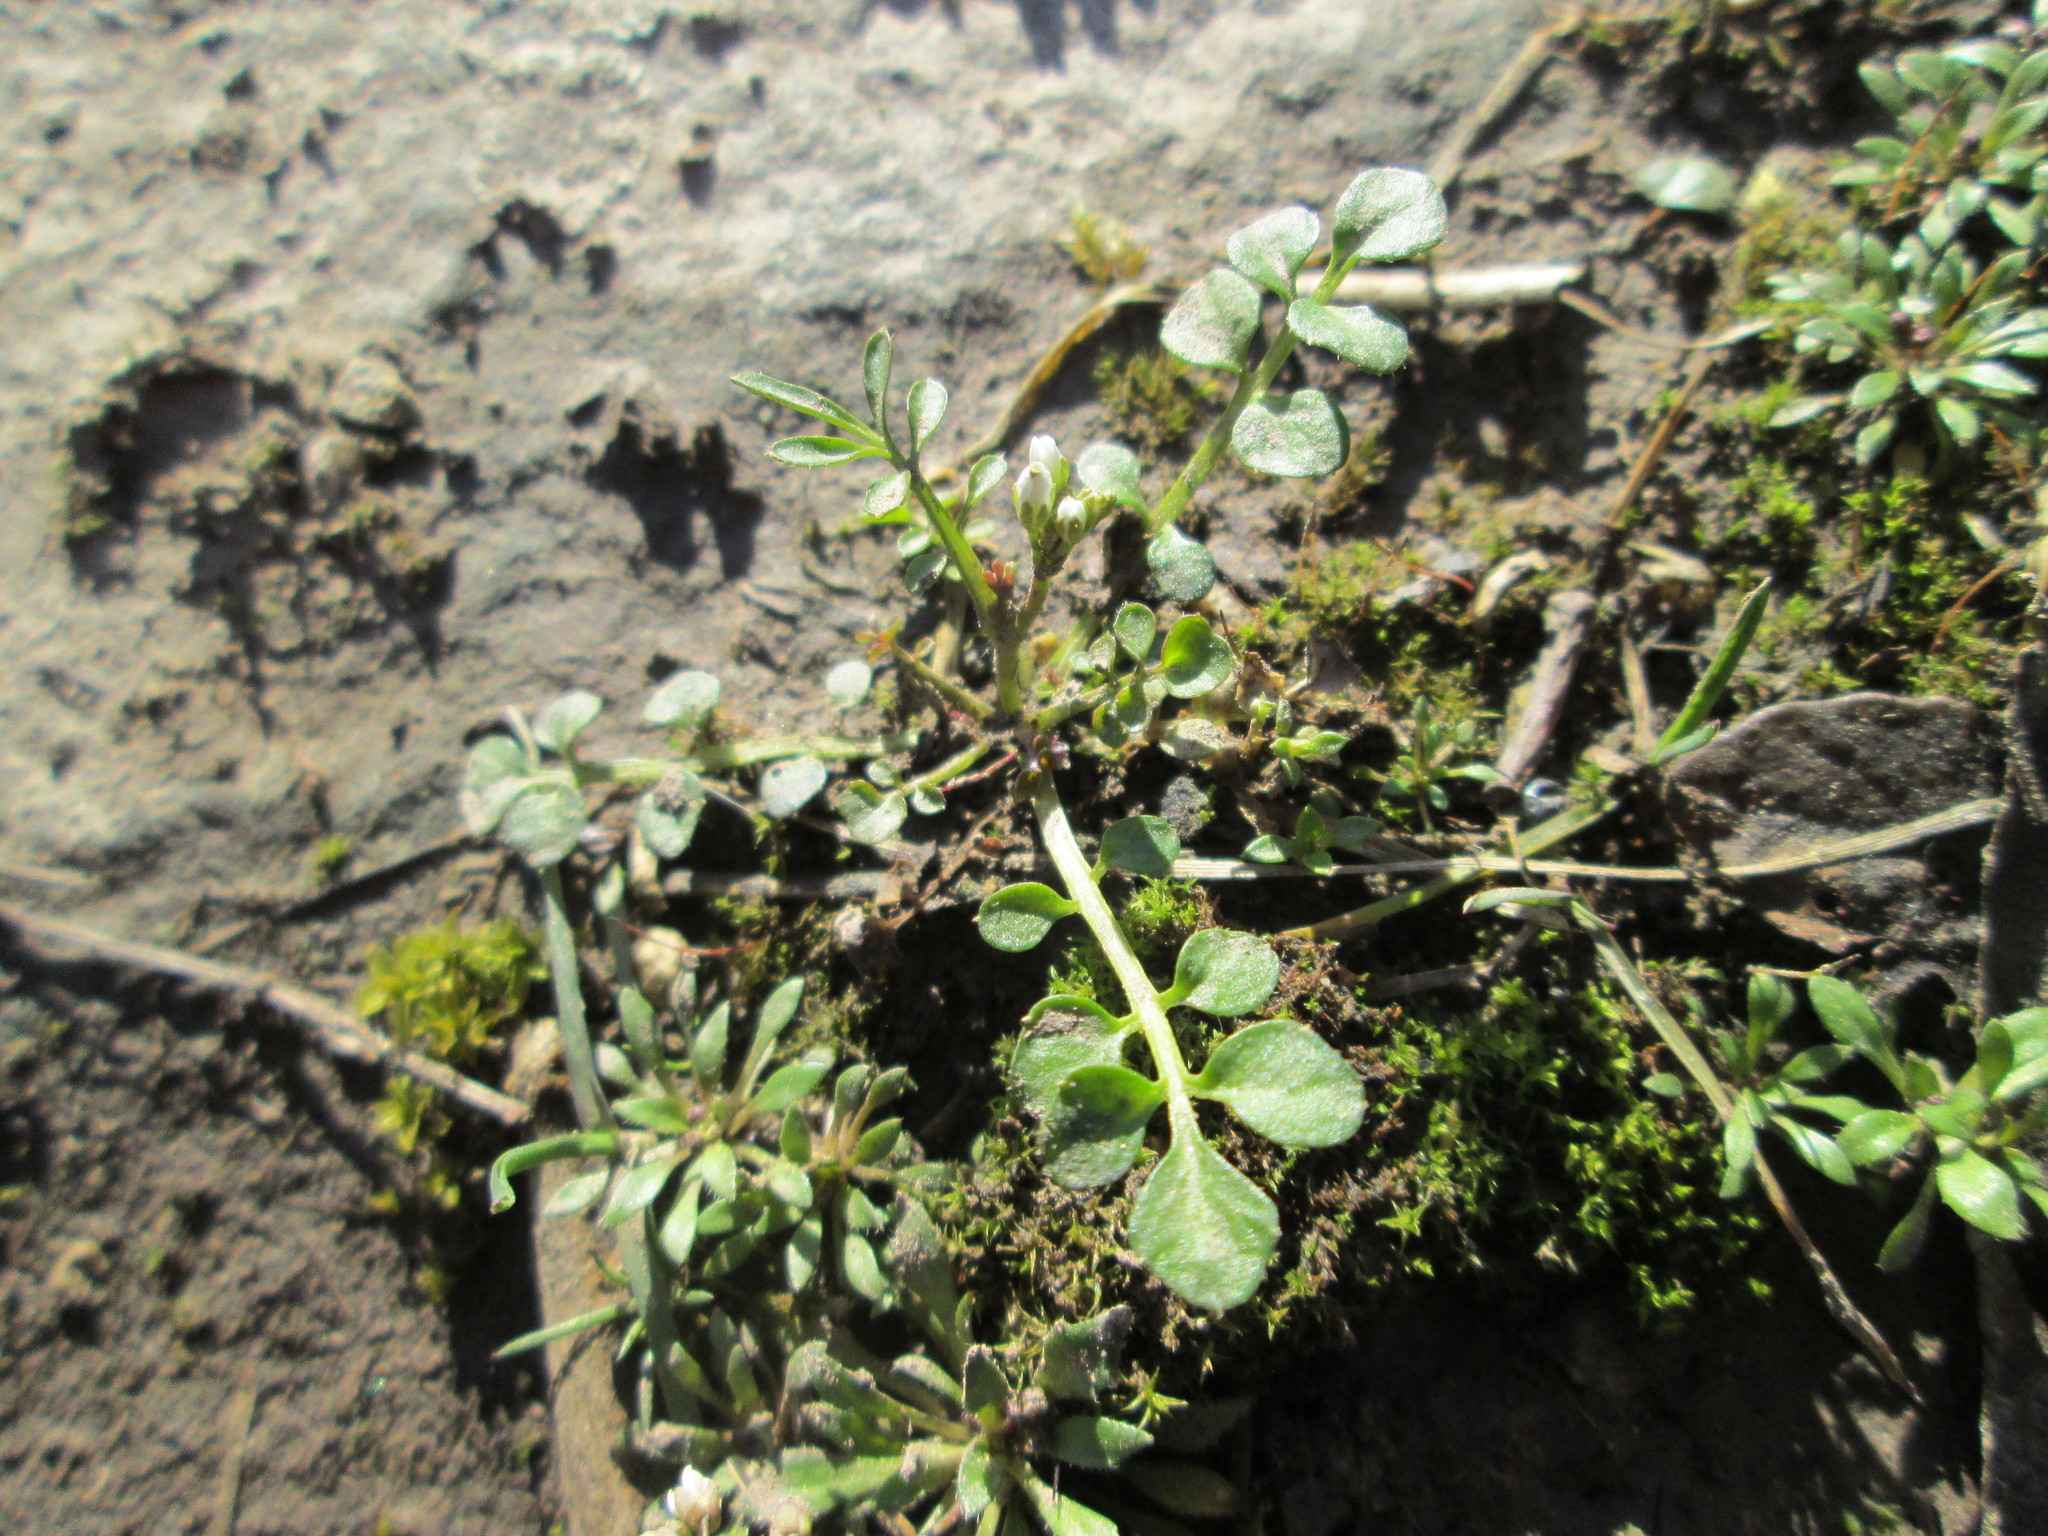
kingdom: Plantae
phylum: Tracheophyta
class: Magnoliopsida
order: Brassicales
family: Brassicaceae
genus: Cardamine
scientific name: Cardamine hirsuta
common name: Hairy bittercress
